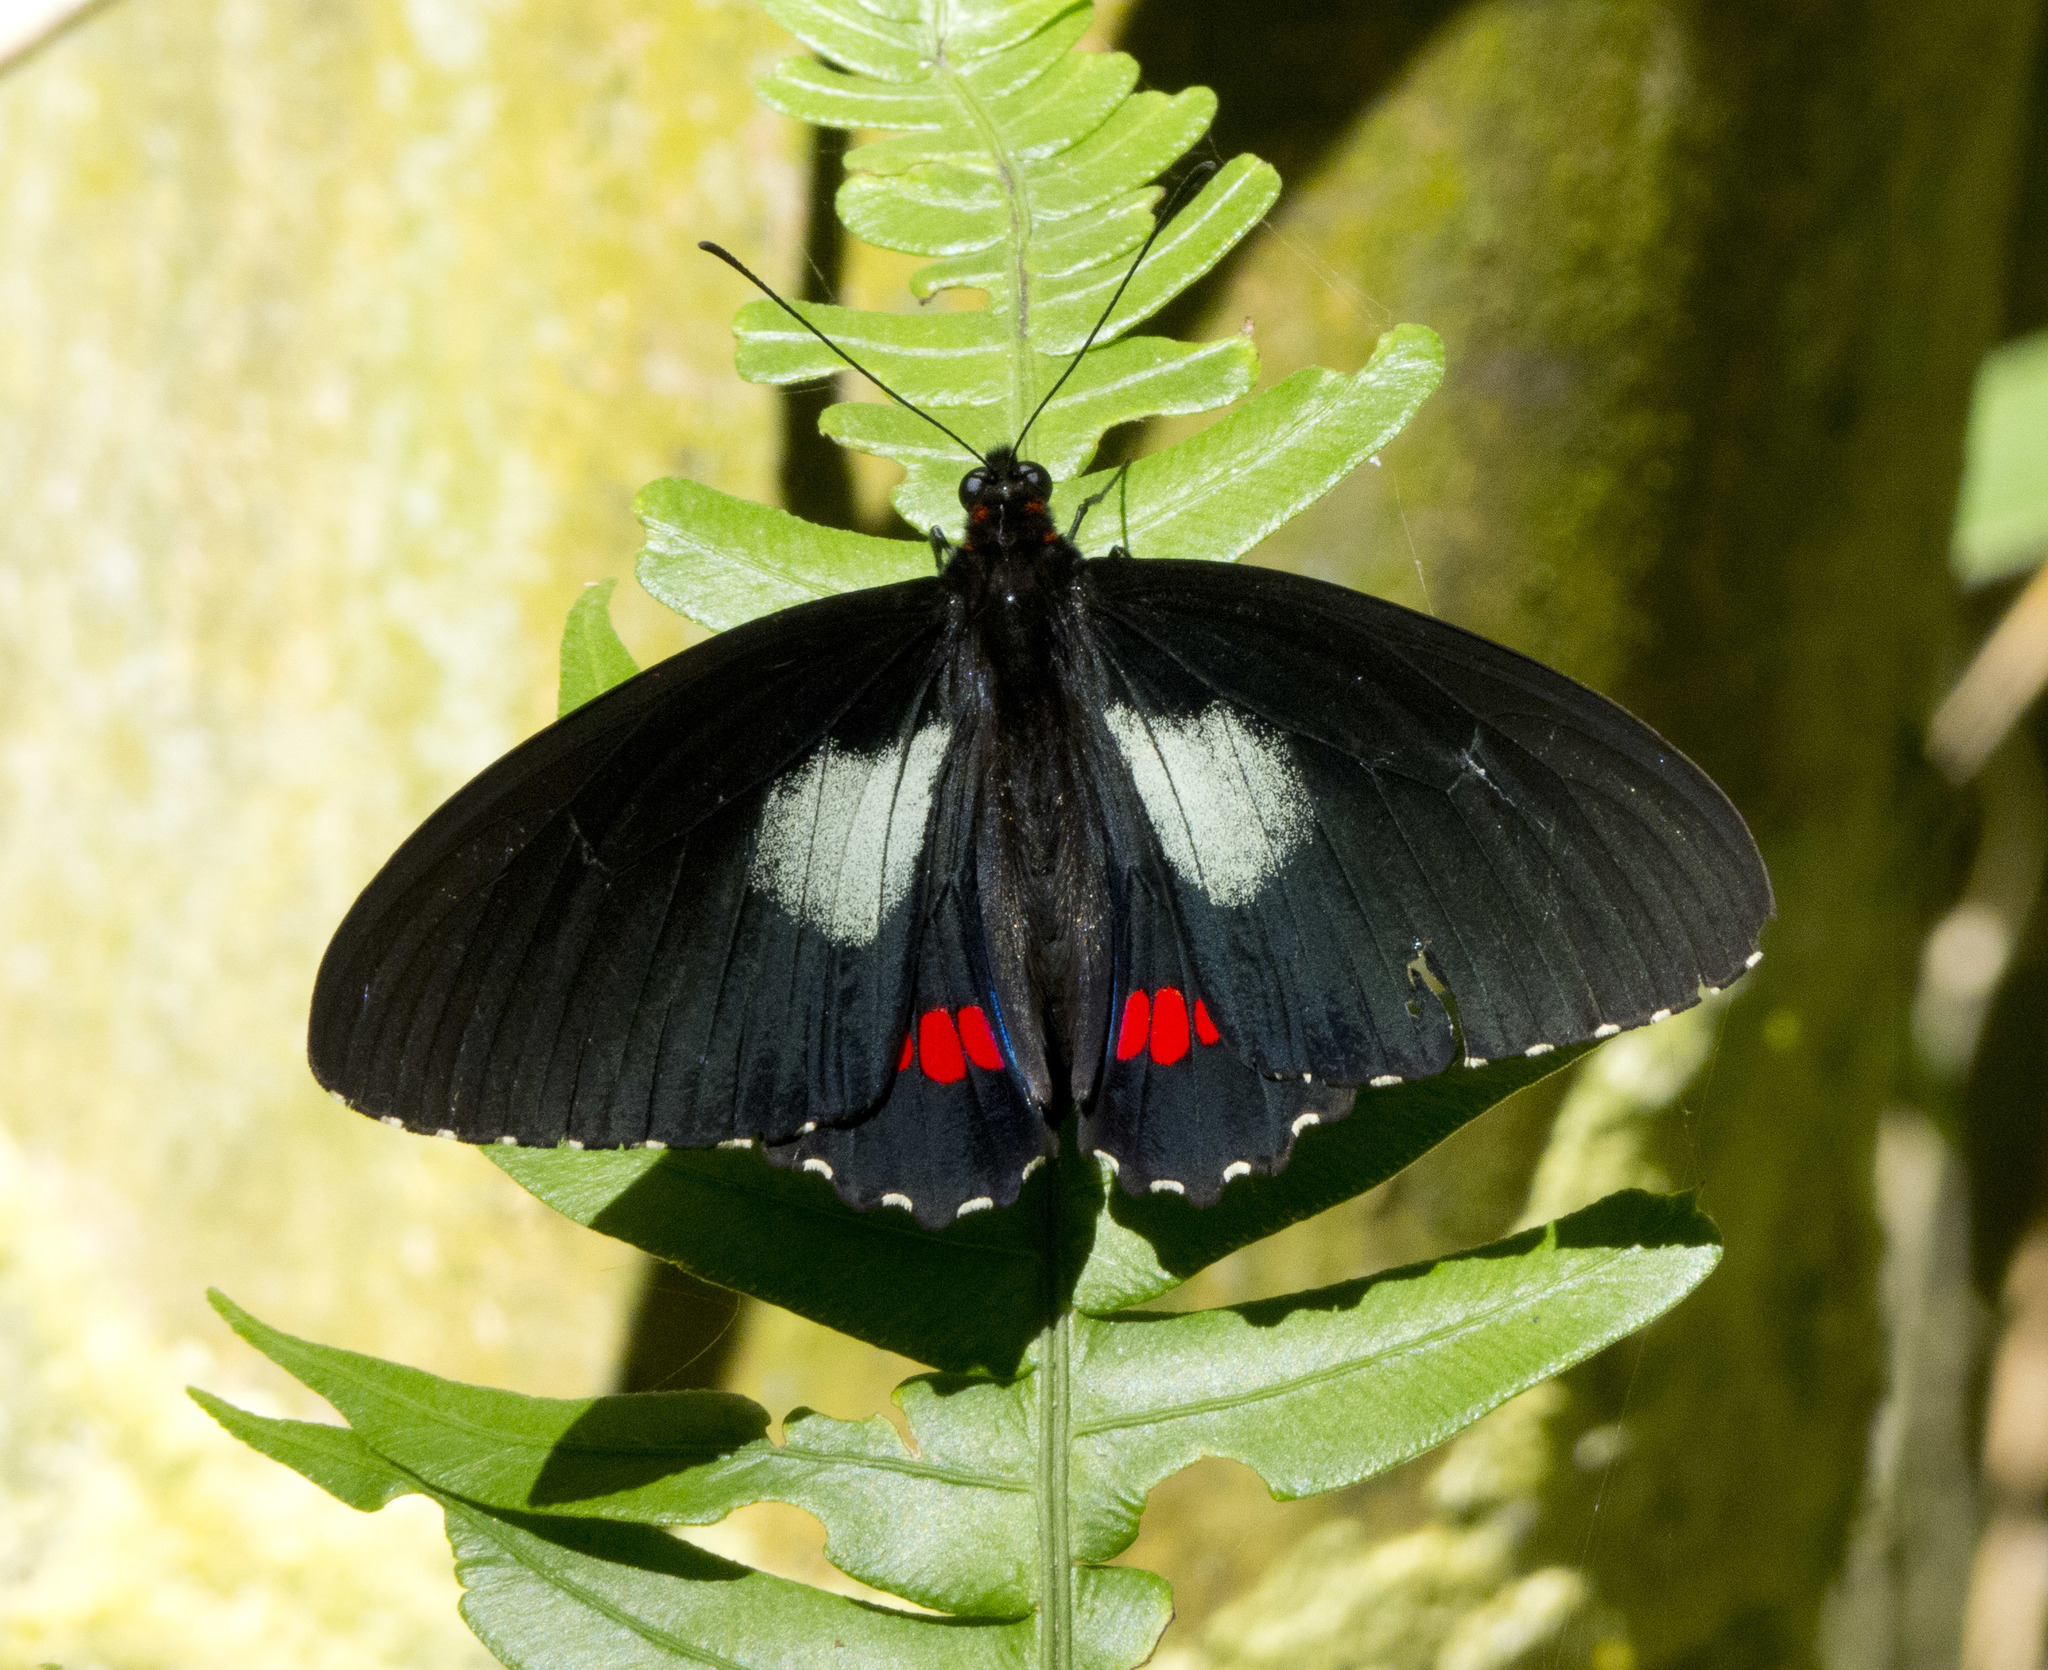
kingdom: Animalia
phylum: Arthropoda
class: Insecta
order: Lepidoptera
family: Papilionidae
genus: Parides
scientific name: Parides anchises
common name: Cattle heart
